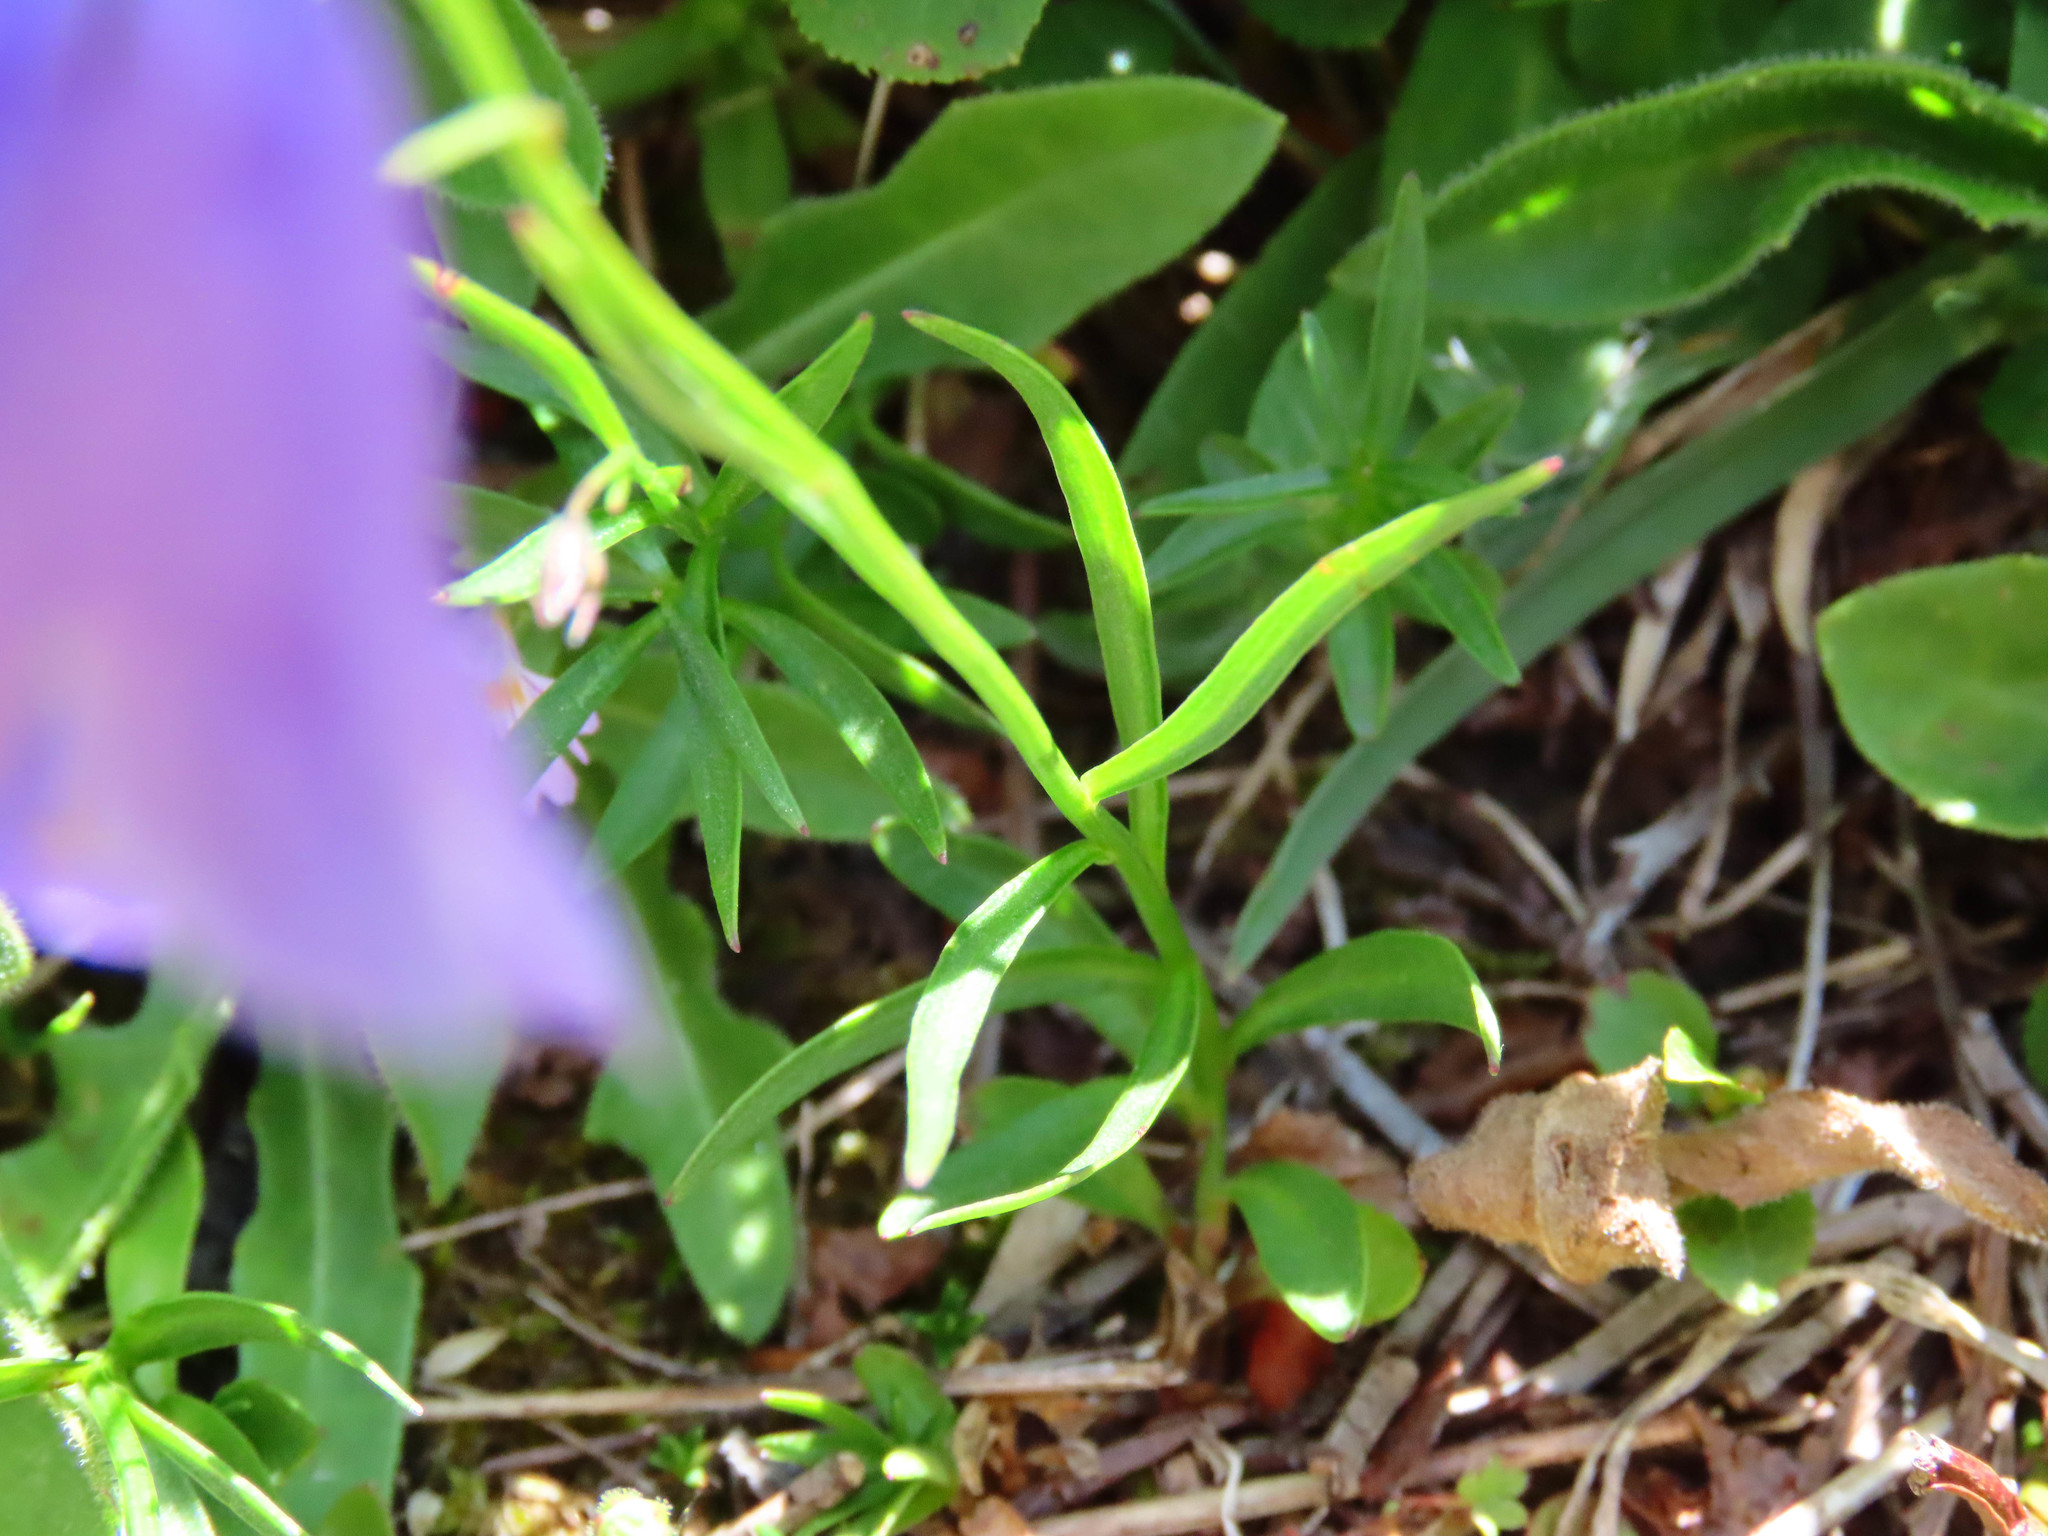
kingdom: Plantae
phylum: Tracheophyta
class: Magnoliopsida
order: Asterales
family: Campanulaceae
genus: Campanula
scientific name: Campanula scheuchzeri
